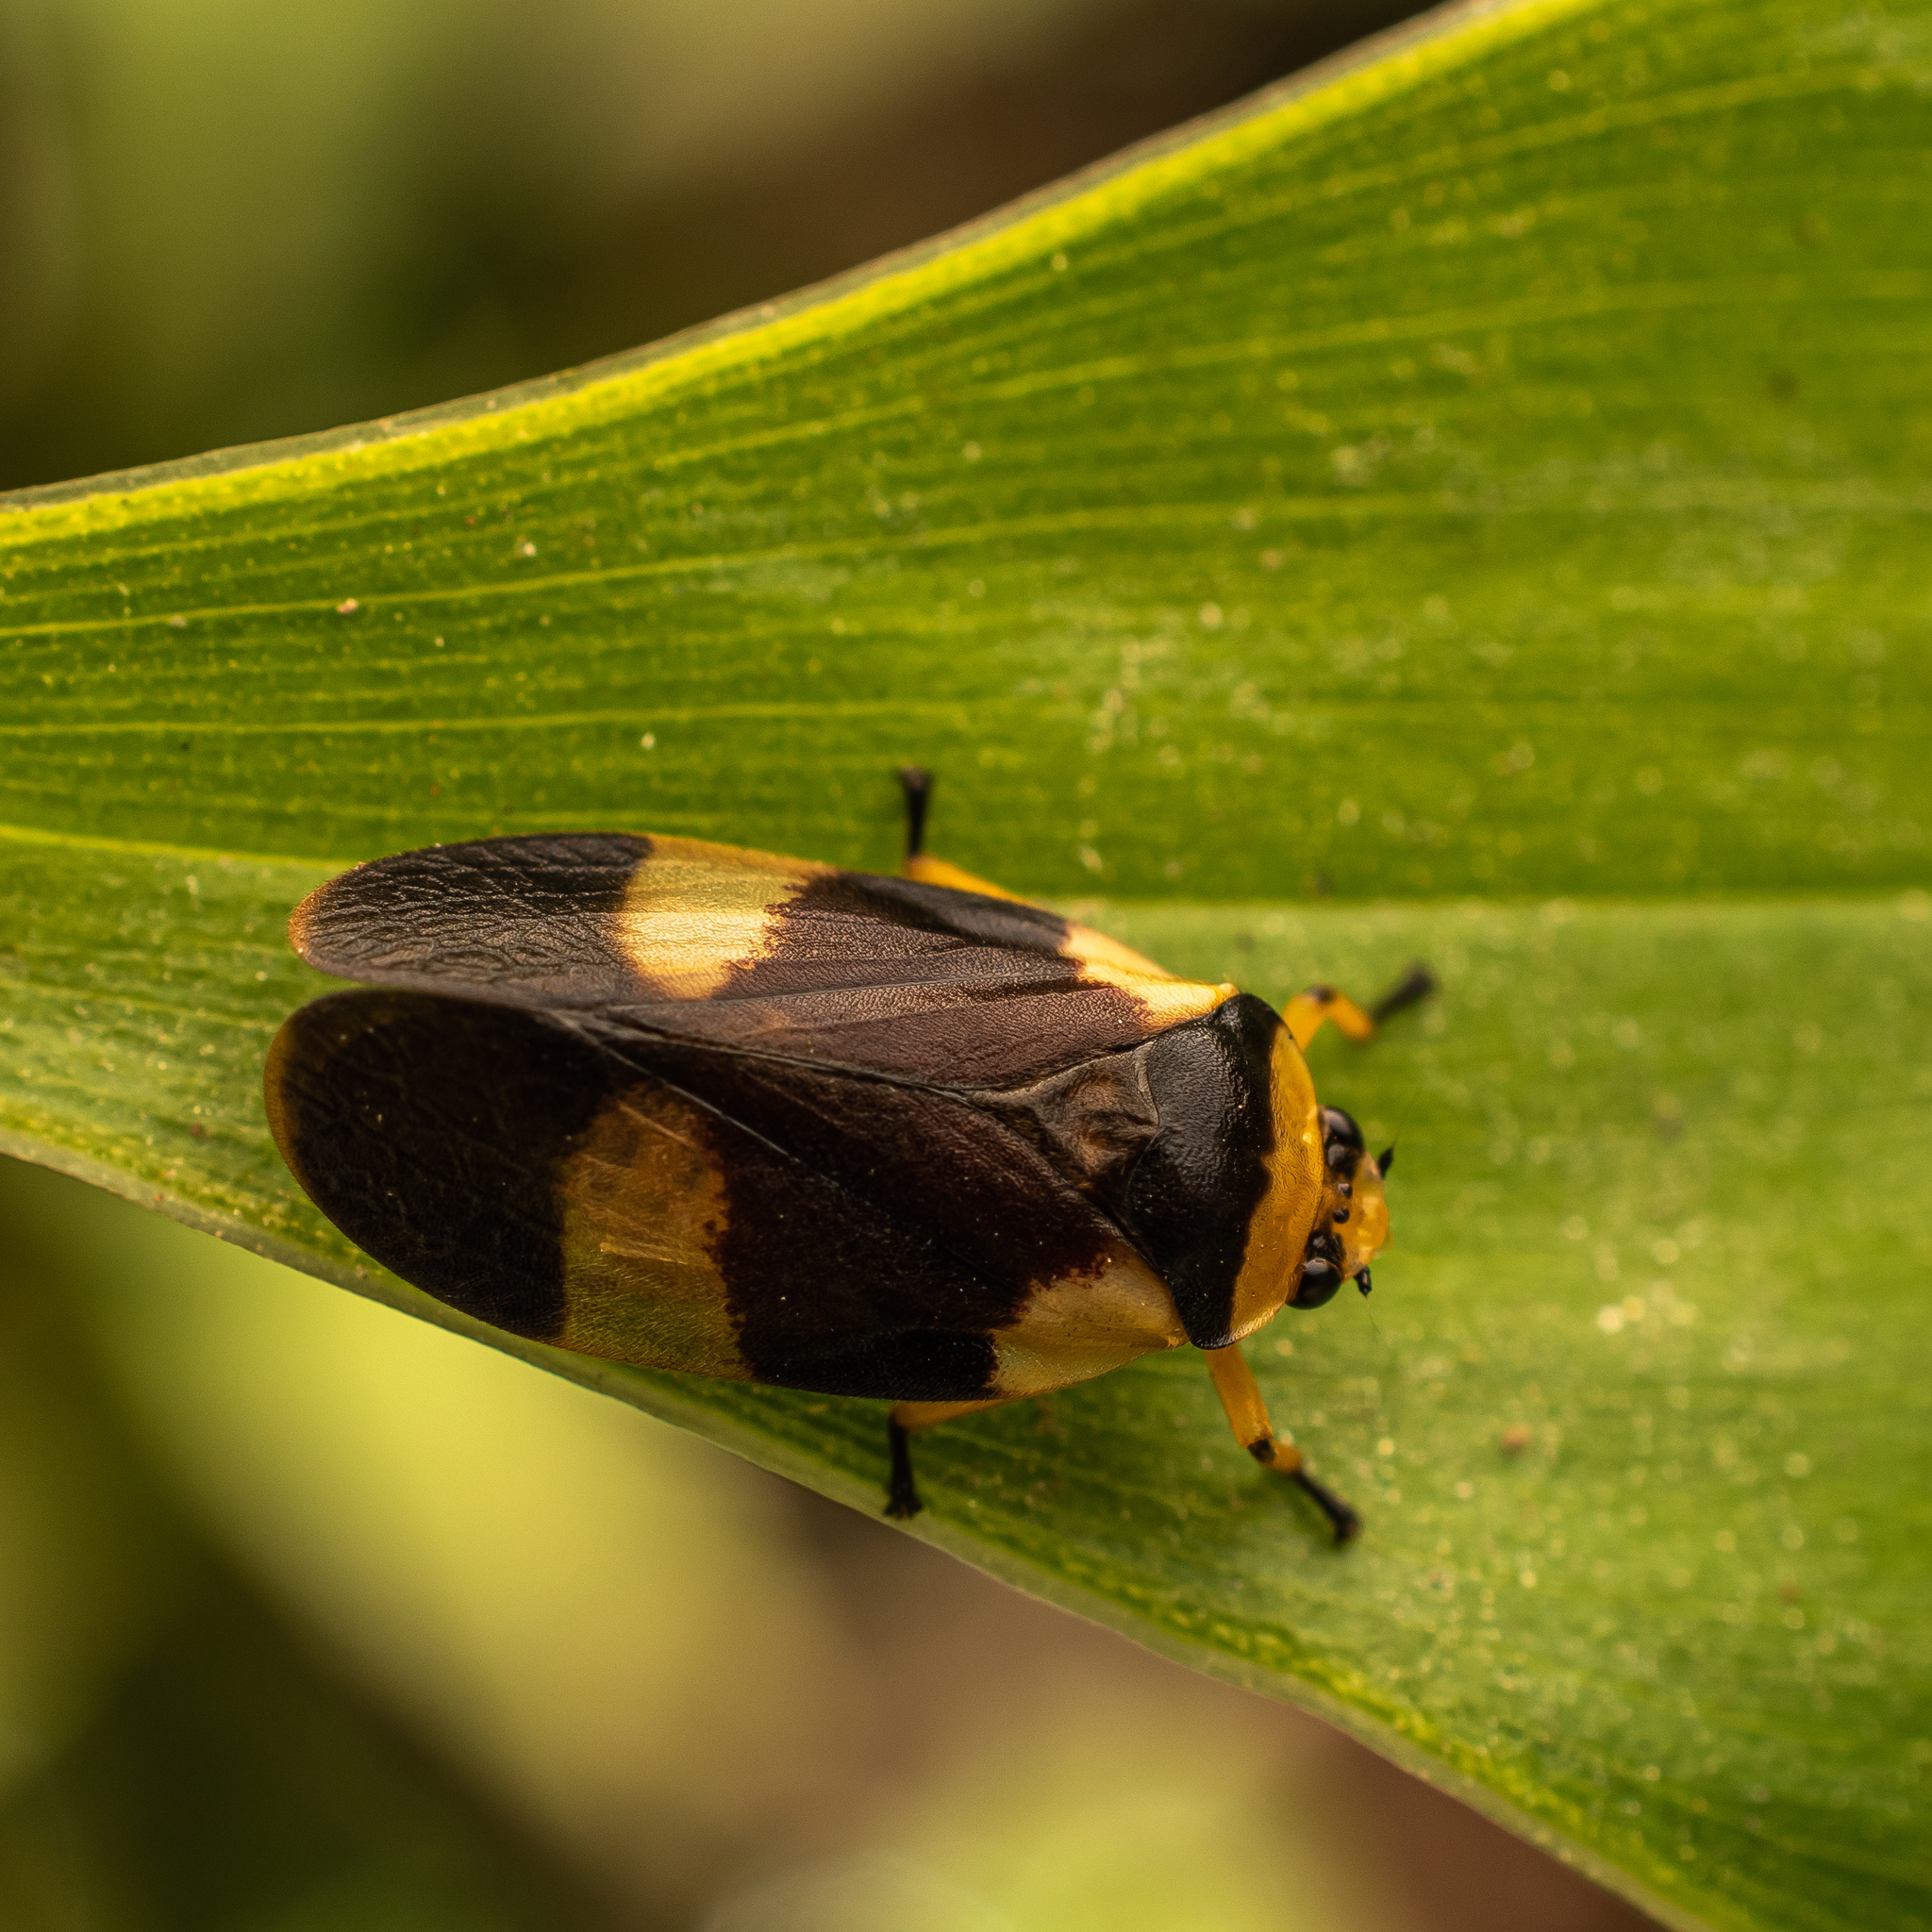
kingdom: Animalia
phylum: Arthropoda
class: Insecta
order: Hemiptera
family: Cercopidae
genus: Tunaima
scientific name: Tunaima pellucens
